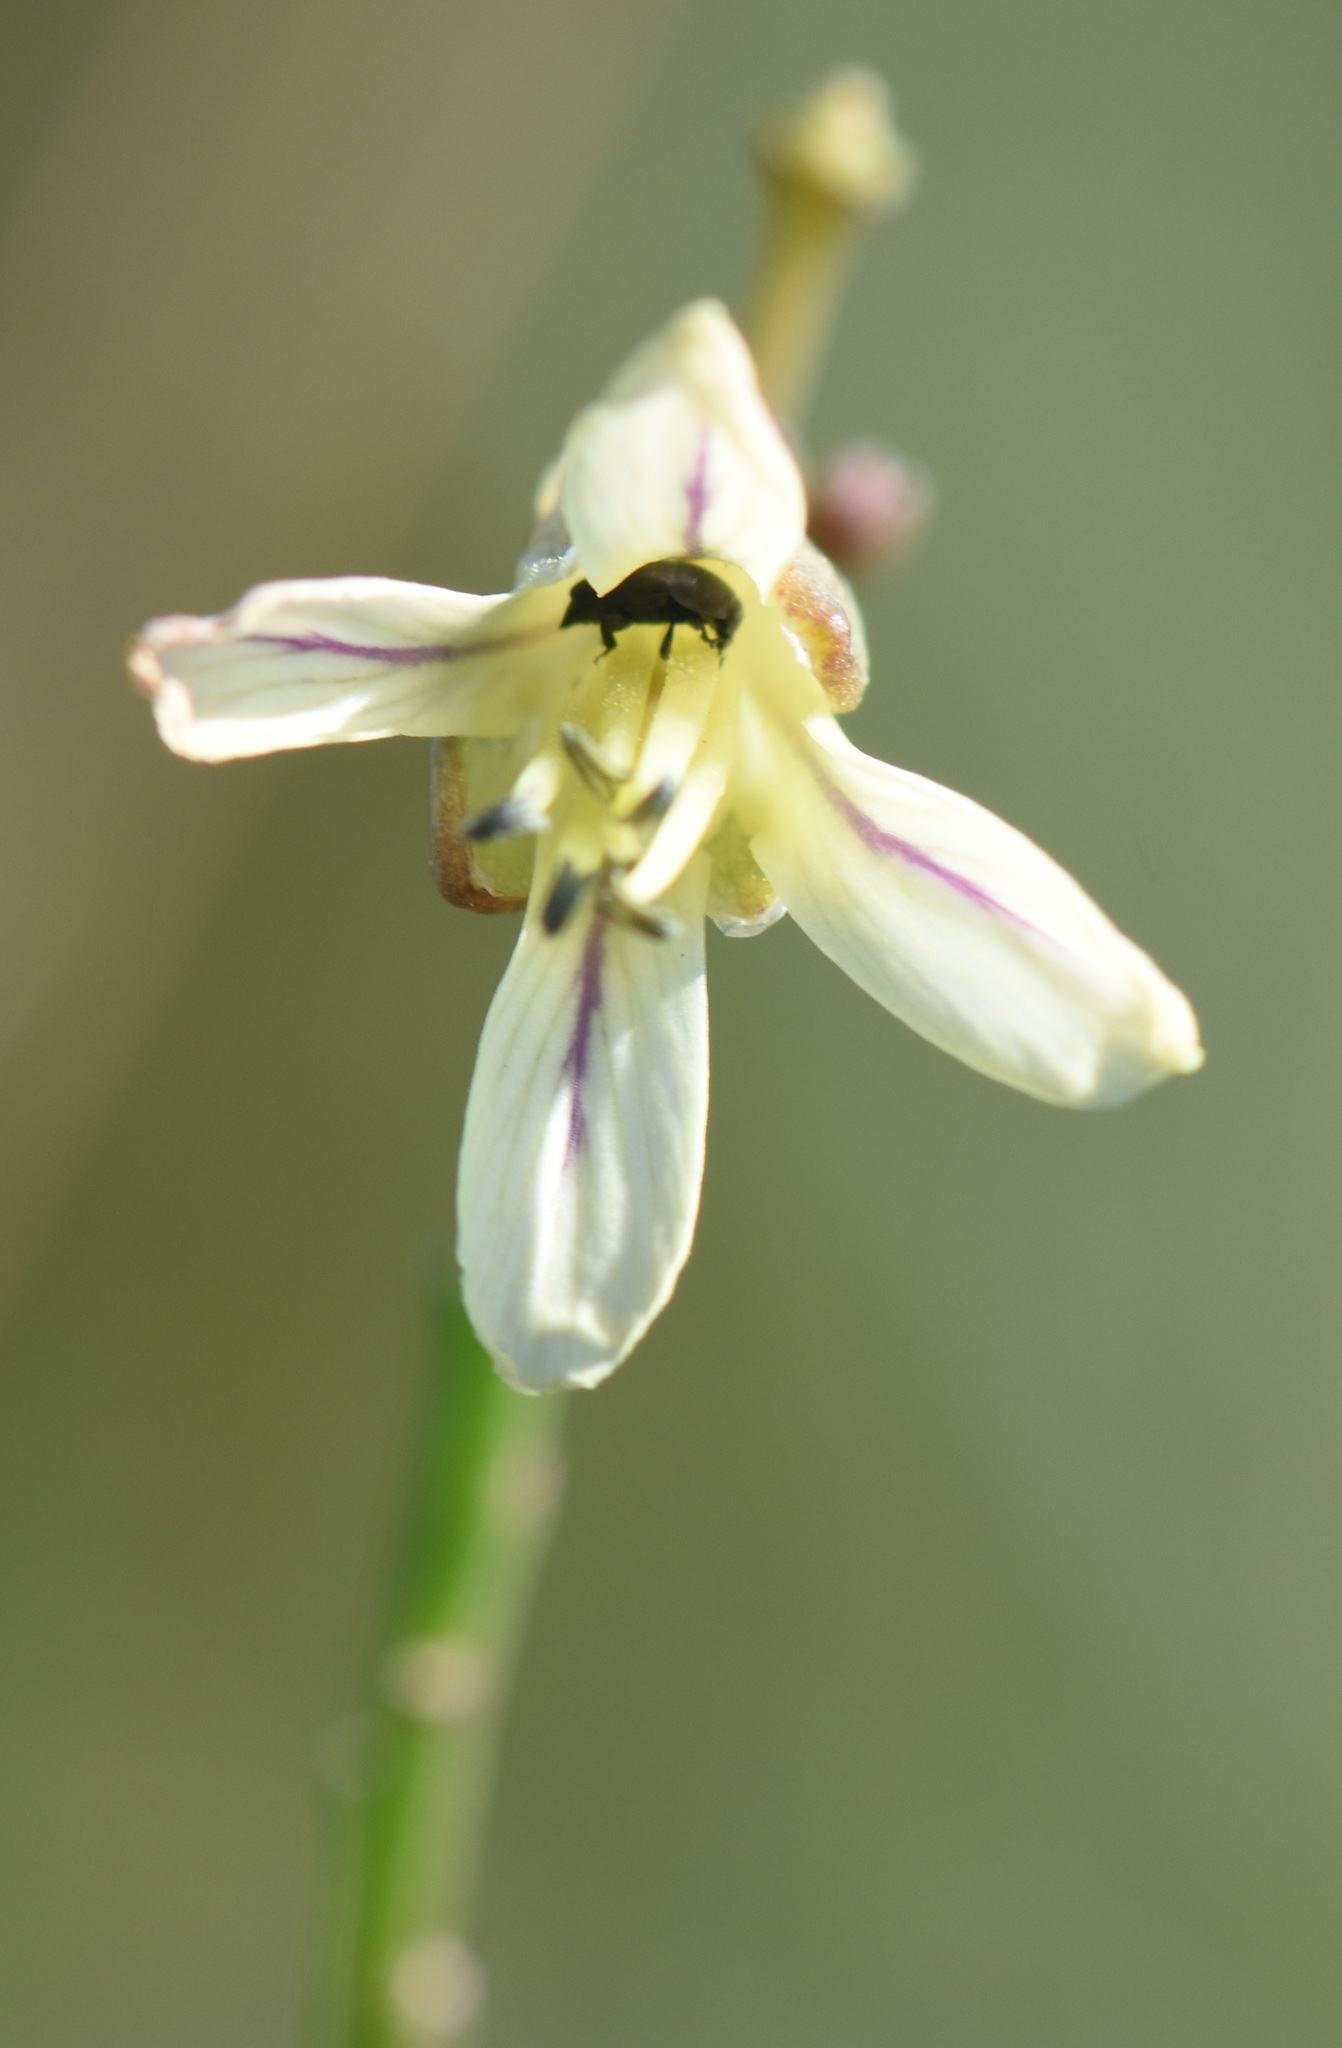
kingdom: Plantae
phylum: Tracheophyta
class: Magnoliopsida
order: Brassicales
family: Brassicaceae
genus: Heliophila
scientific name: Heliophila elongata
